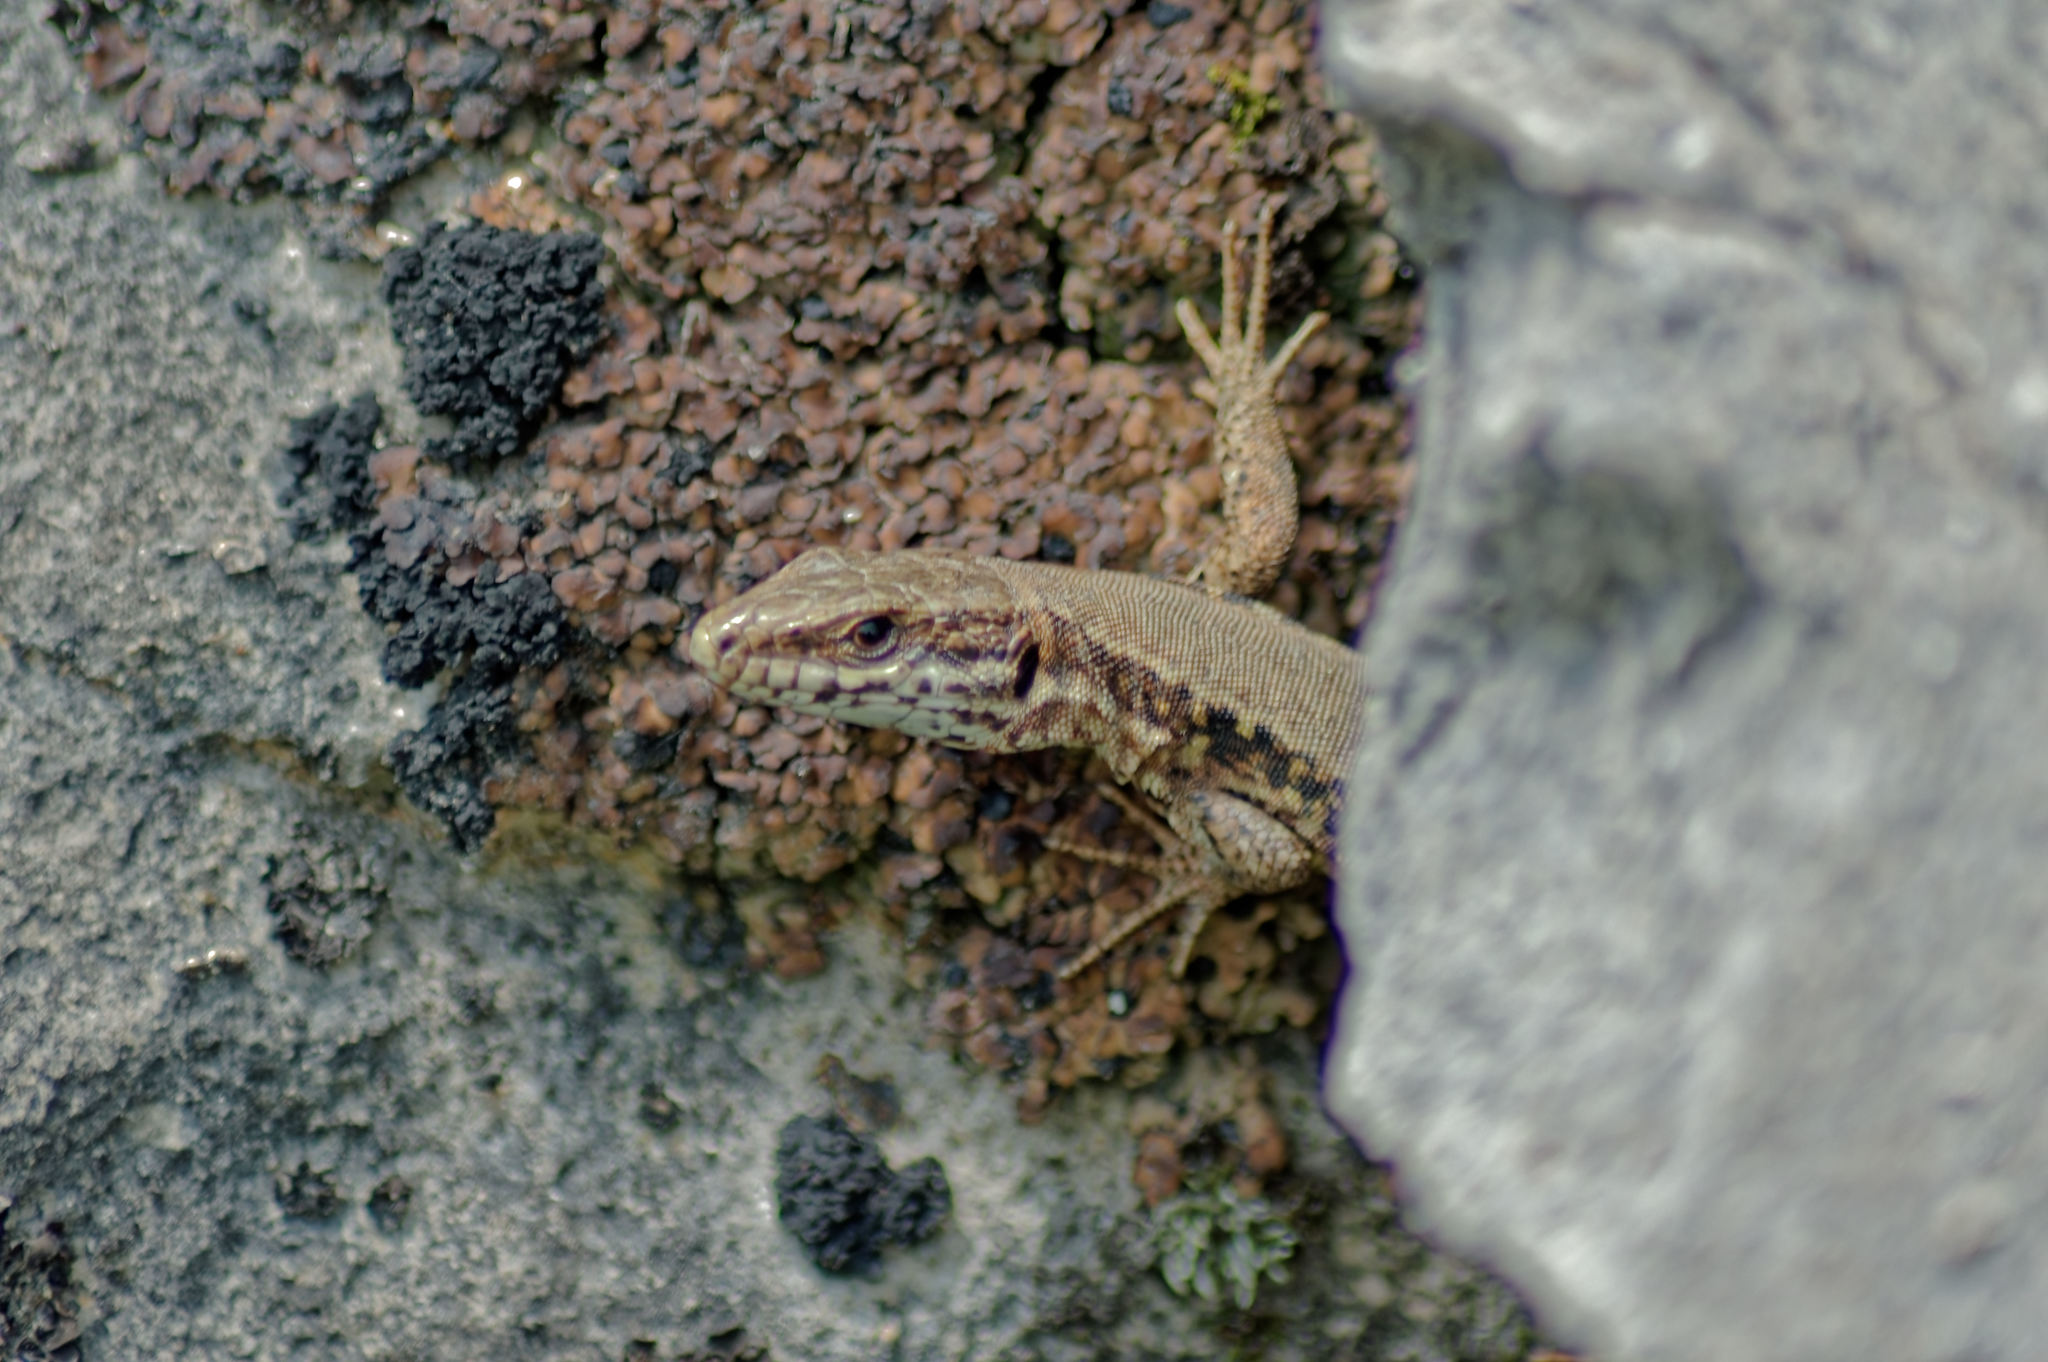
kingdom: Animalia
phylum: Chordata
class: Squamata
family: Lacertidae
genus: Podarcis
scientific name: Podarcis muralis
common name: Common wall lizard
